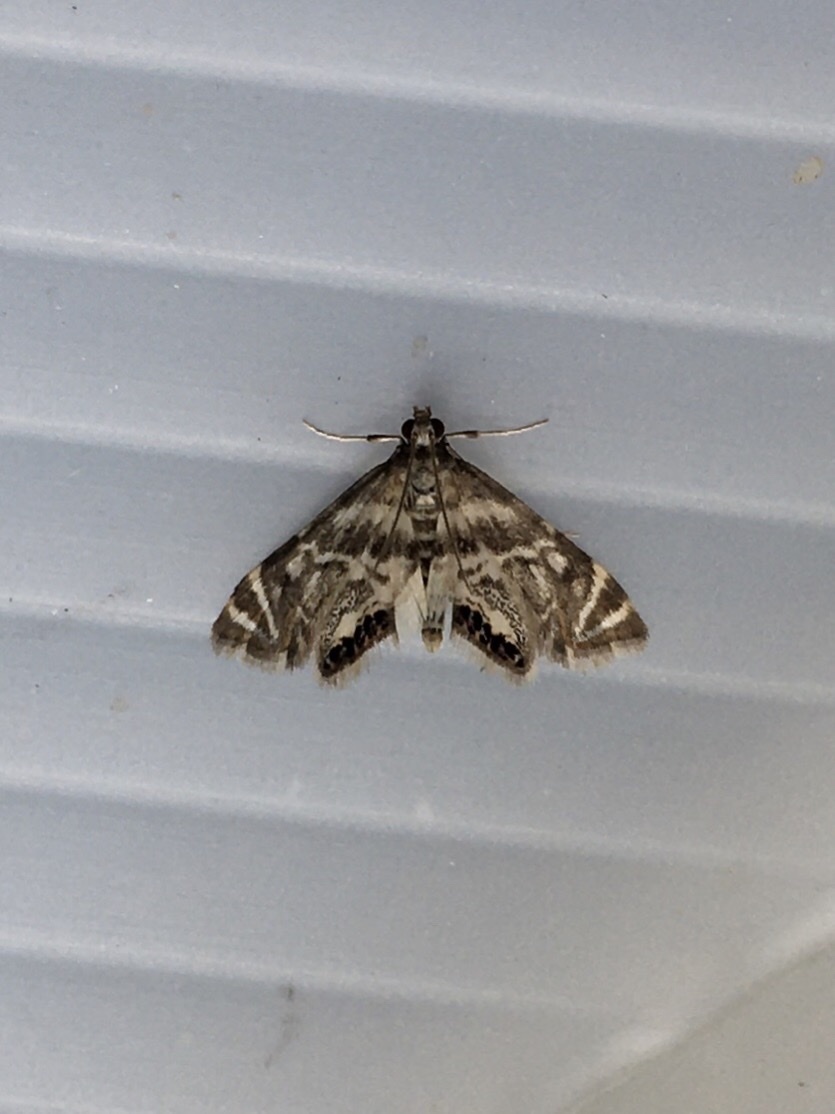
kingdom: Animalia
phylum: Arthropoda
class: Insecta
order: Lepidoptera
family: Crambidae
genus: Petrophila
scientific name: Petrophila canadensis
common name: Canadian petrophila
